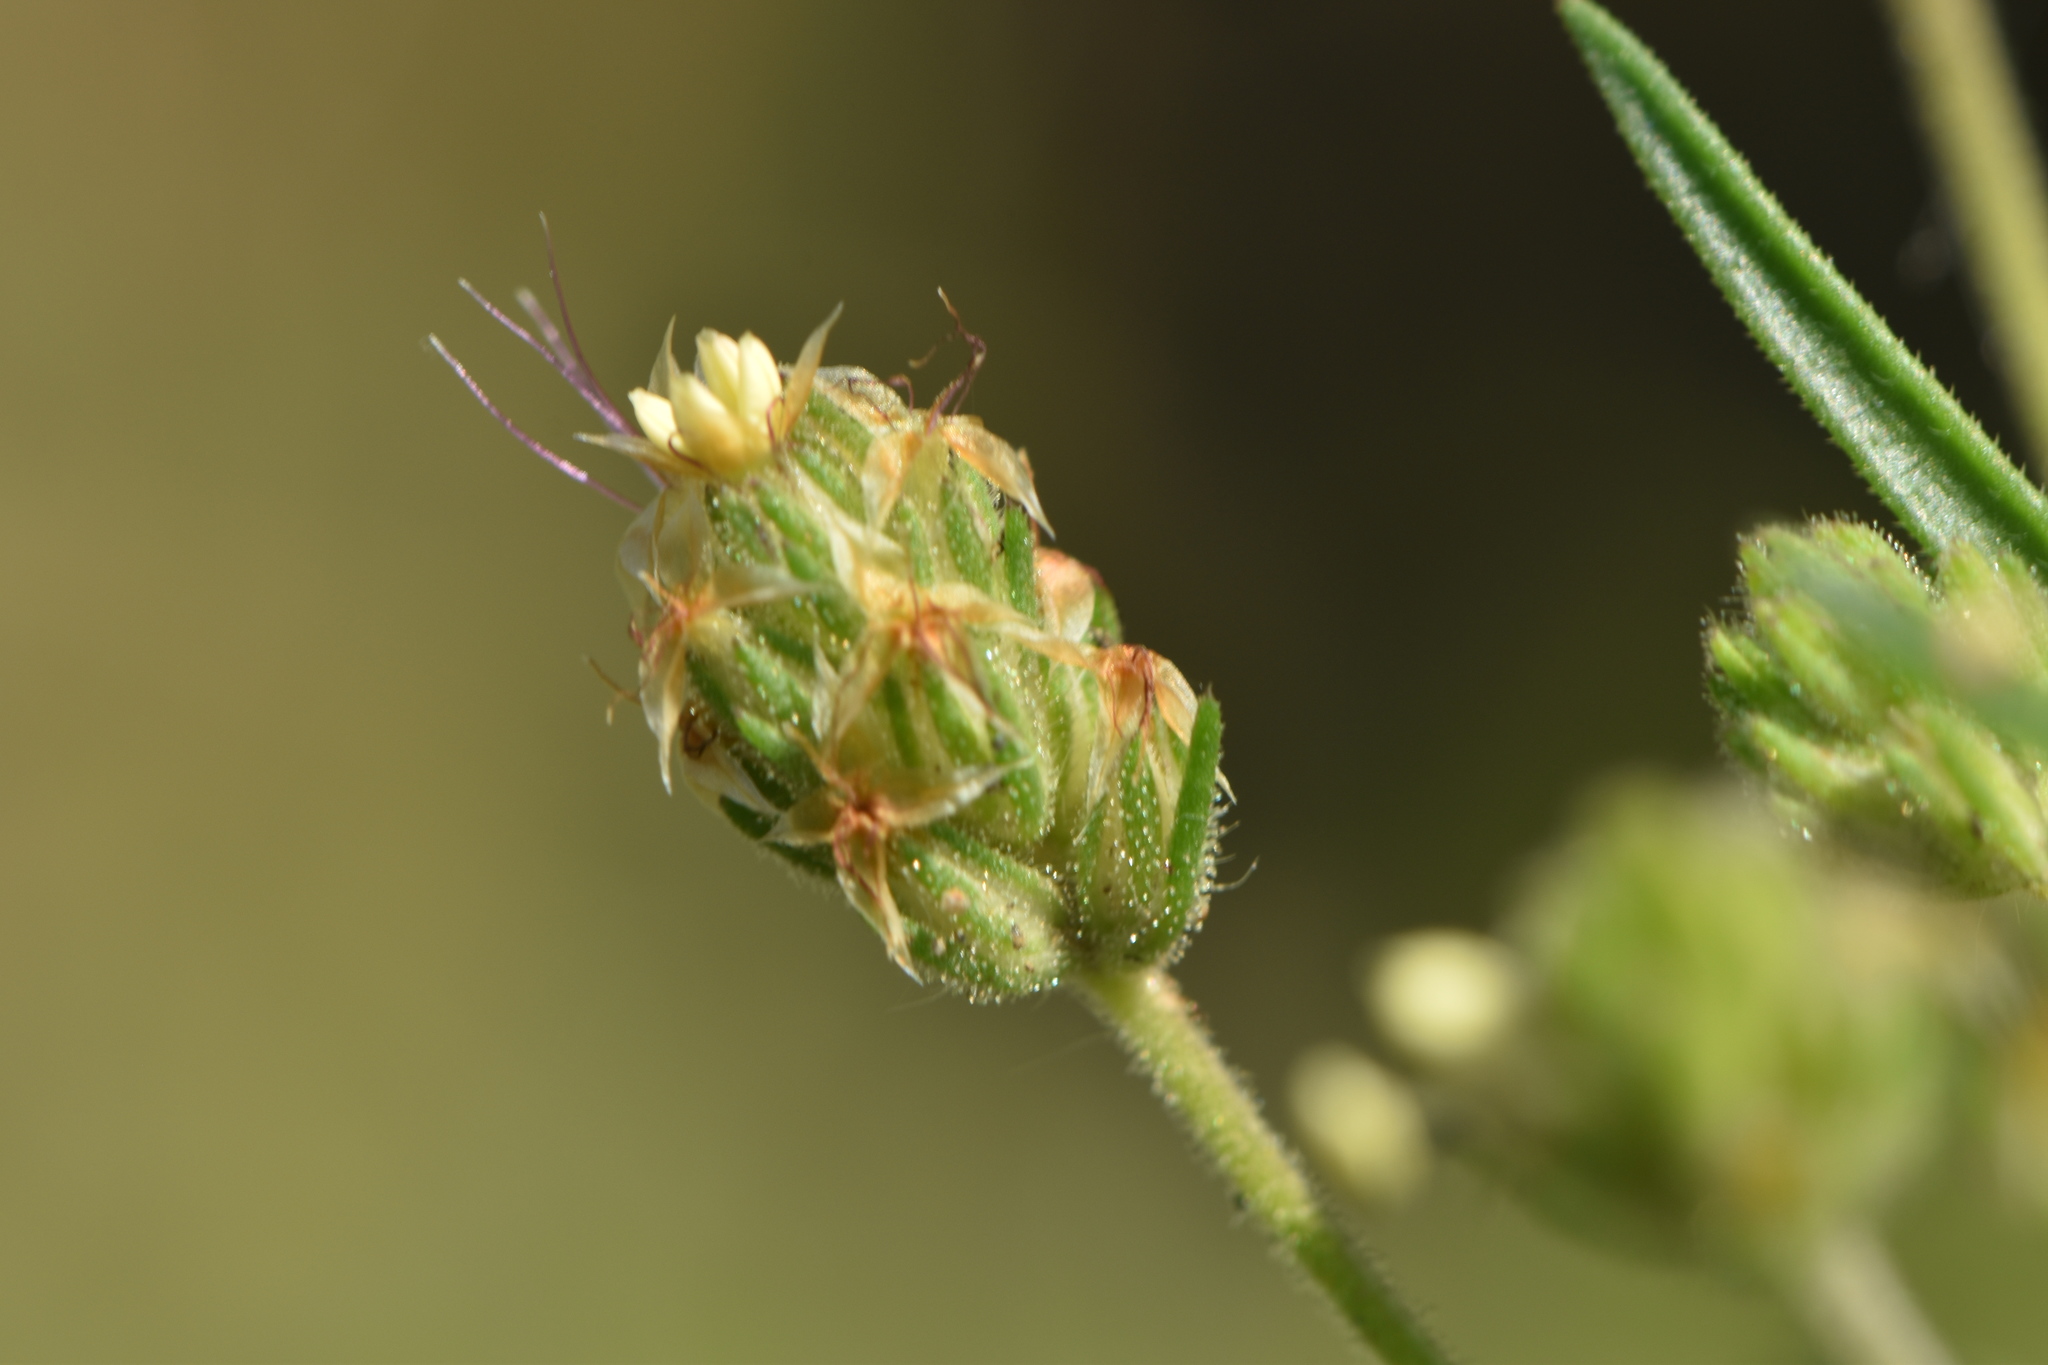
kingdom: Plantae
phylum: Tracheophyta
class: Magnoliopsida
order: Lamiales
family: Plantaginaceae
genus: Plantago
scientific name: Plantago afra
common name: Glandular plantain
